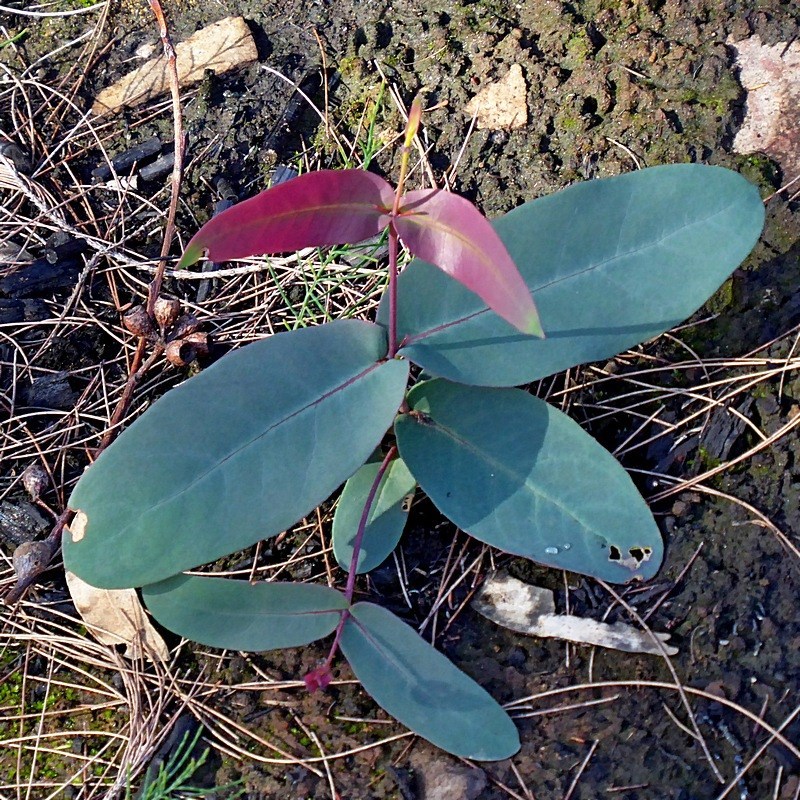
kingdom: Plantae
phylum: Tracheophyta
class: Magnoliopsida
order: Myrtales
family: Myrtaceae
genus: Eucalyptus
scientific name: Eucalyptus sieberi
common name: Black-ash
